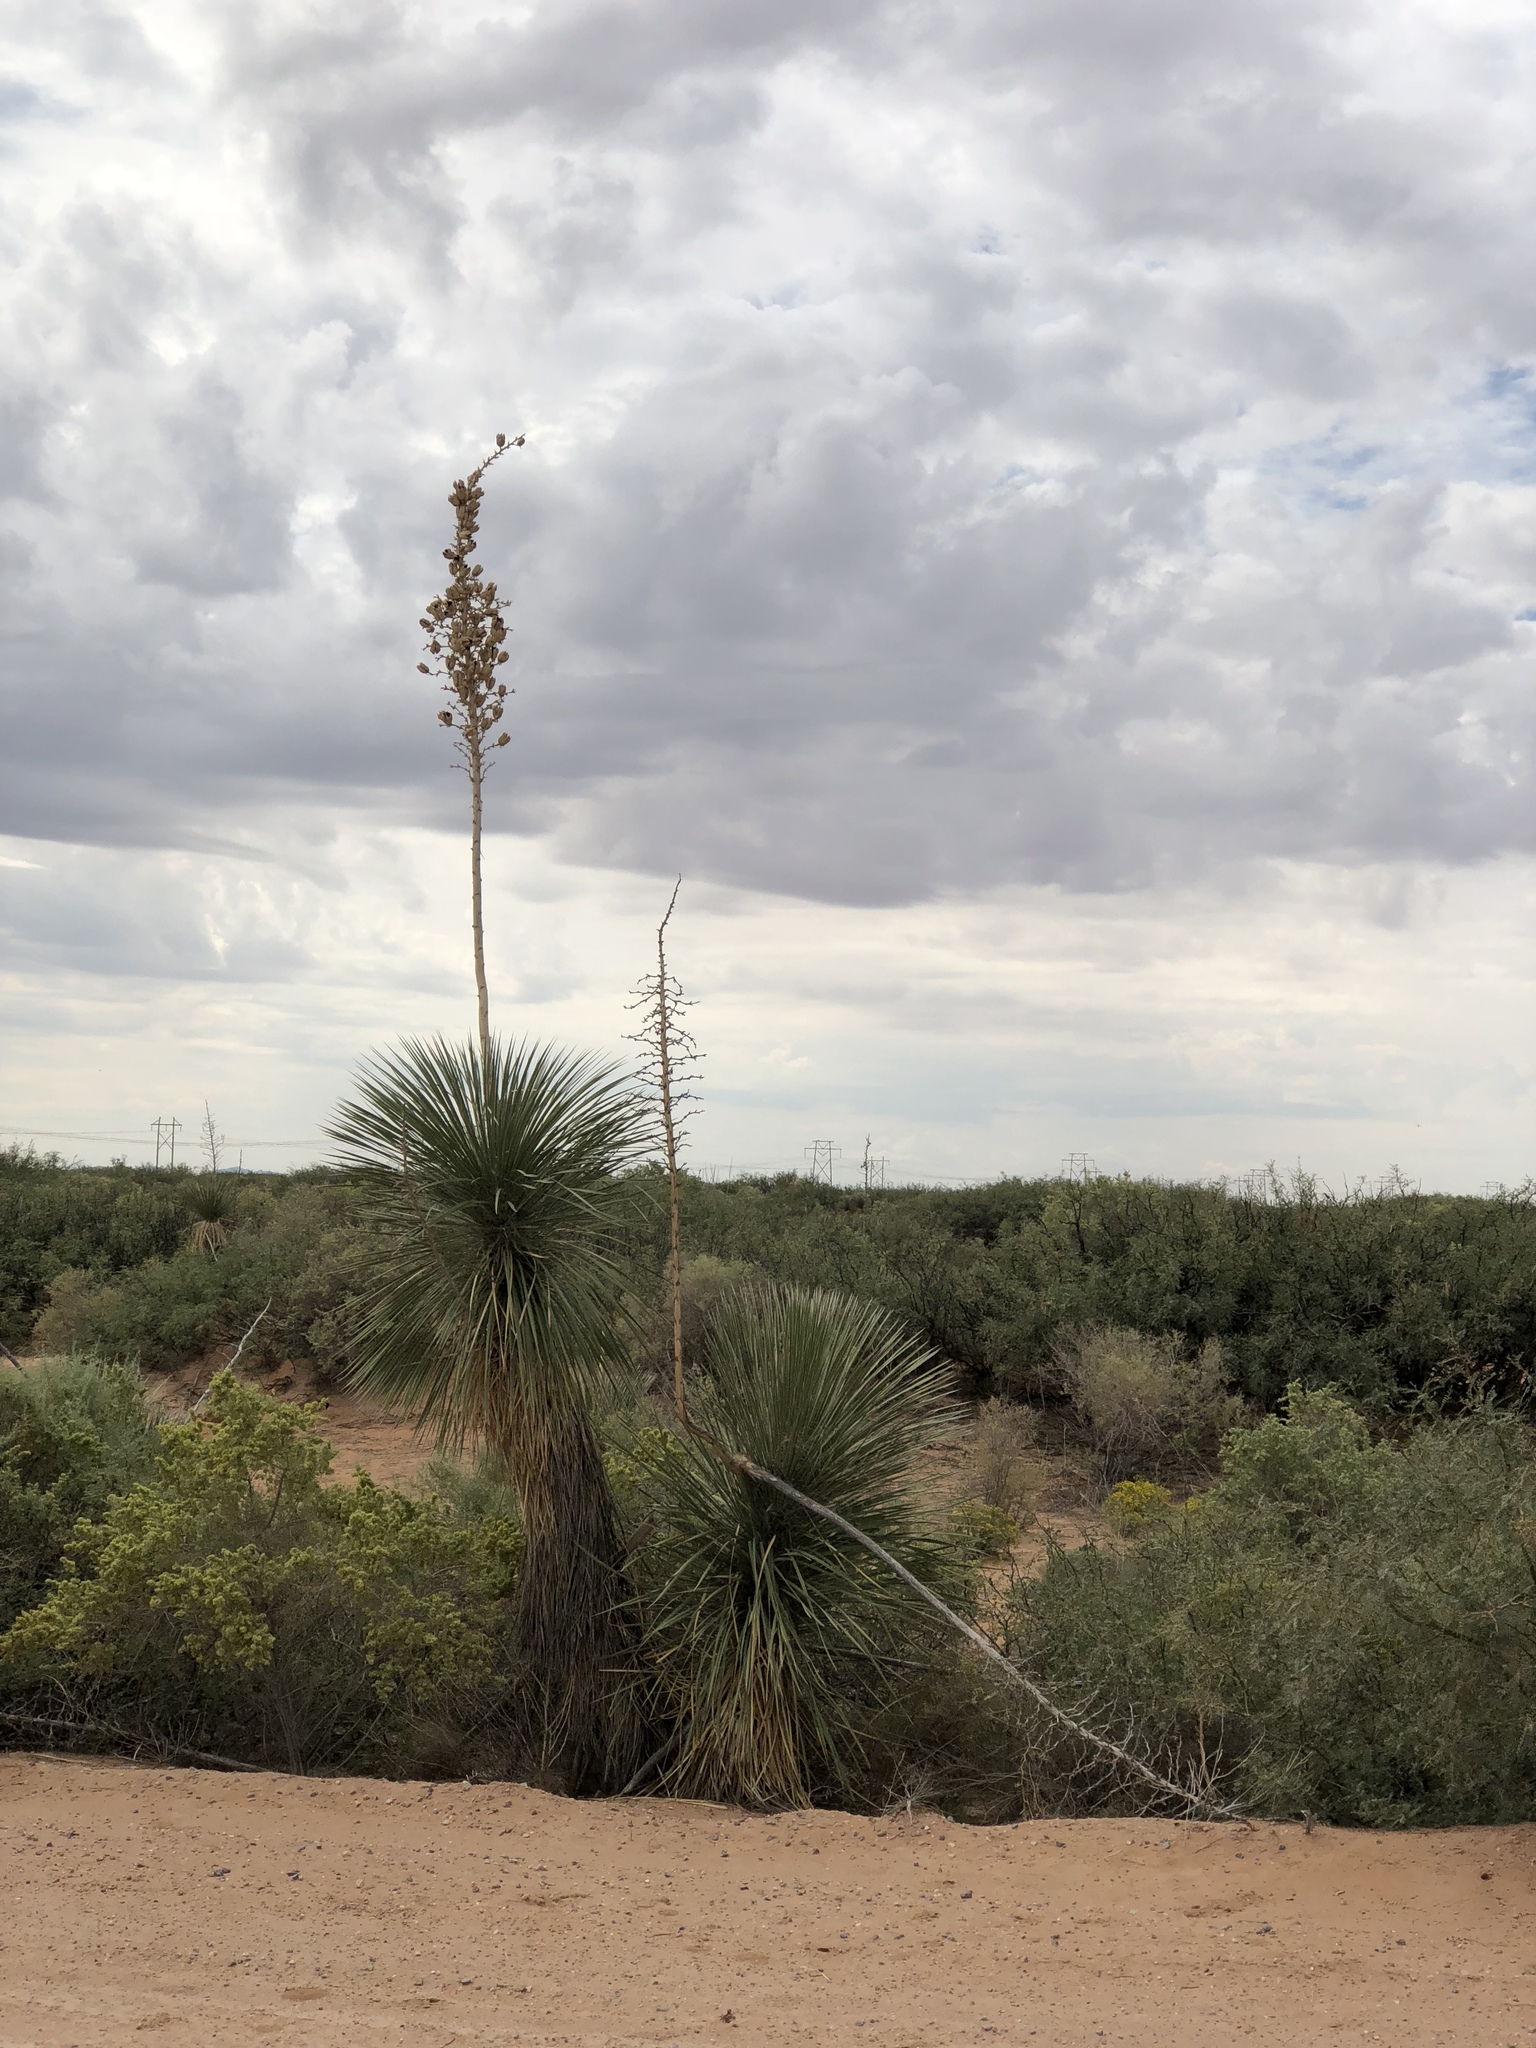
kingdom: Plantae
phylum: Tracheophyta
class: Liliopsida
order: Asparagales
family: Asparagaceae
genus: Yucca
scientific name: Yucca elata
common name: Palmella
